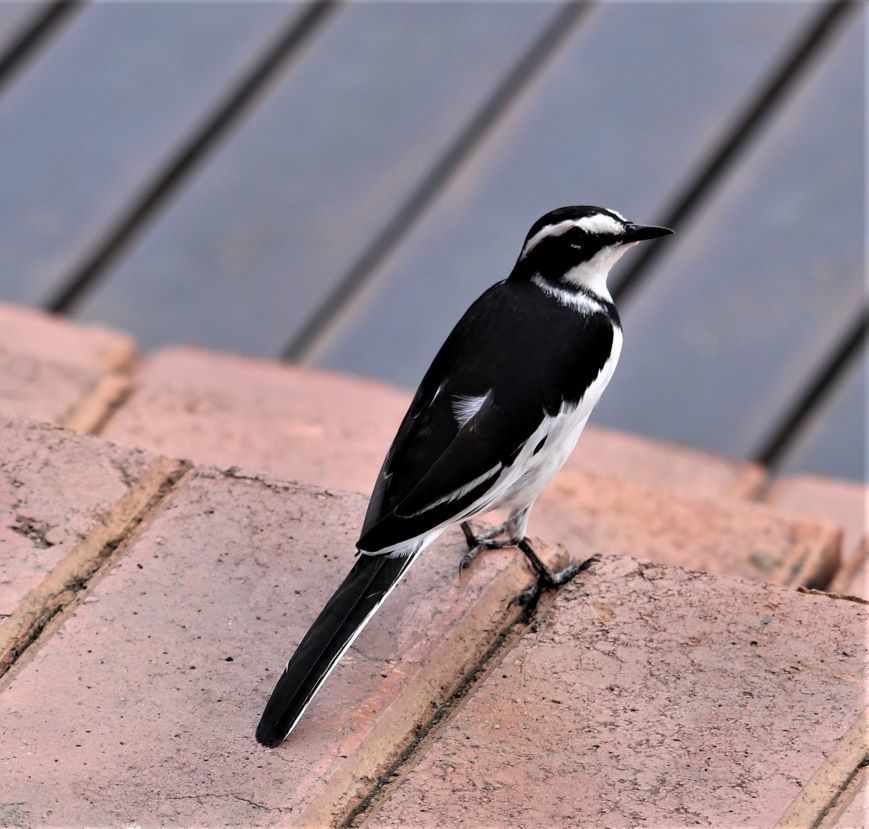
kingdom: Animalia
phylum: Chordata
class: Aves
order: Passeriformes
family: Motacillidae
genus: Motacilla
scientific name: Motacilla aguimp
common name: African pied wagtail
